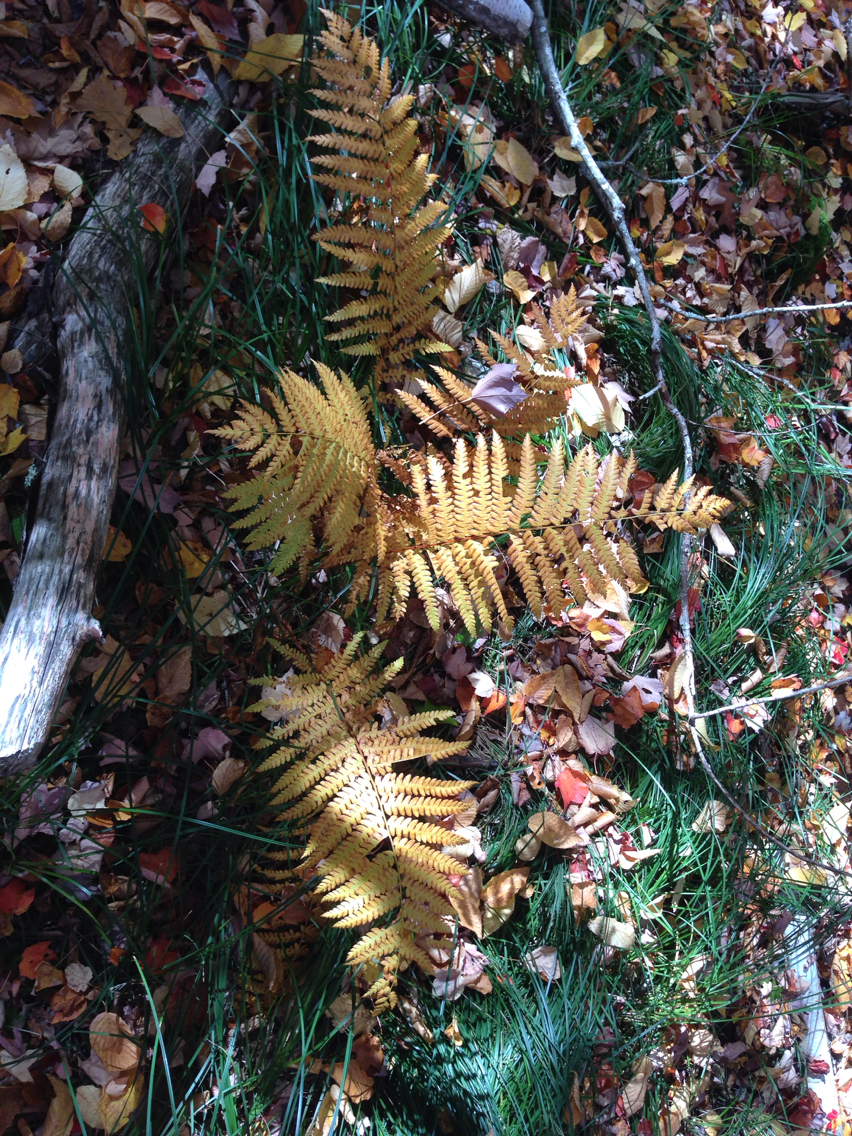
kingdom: Plantae
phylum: Tracheophyta
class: Polypodiopsida
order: Osmundales
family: Osmundaceae
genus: Osmundastrum
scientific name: Osmundastrum cinnamomeum
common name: Cinnamon fern
